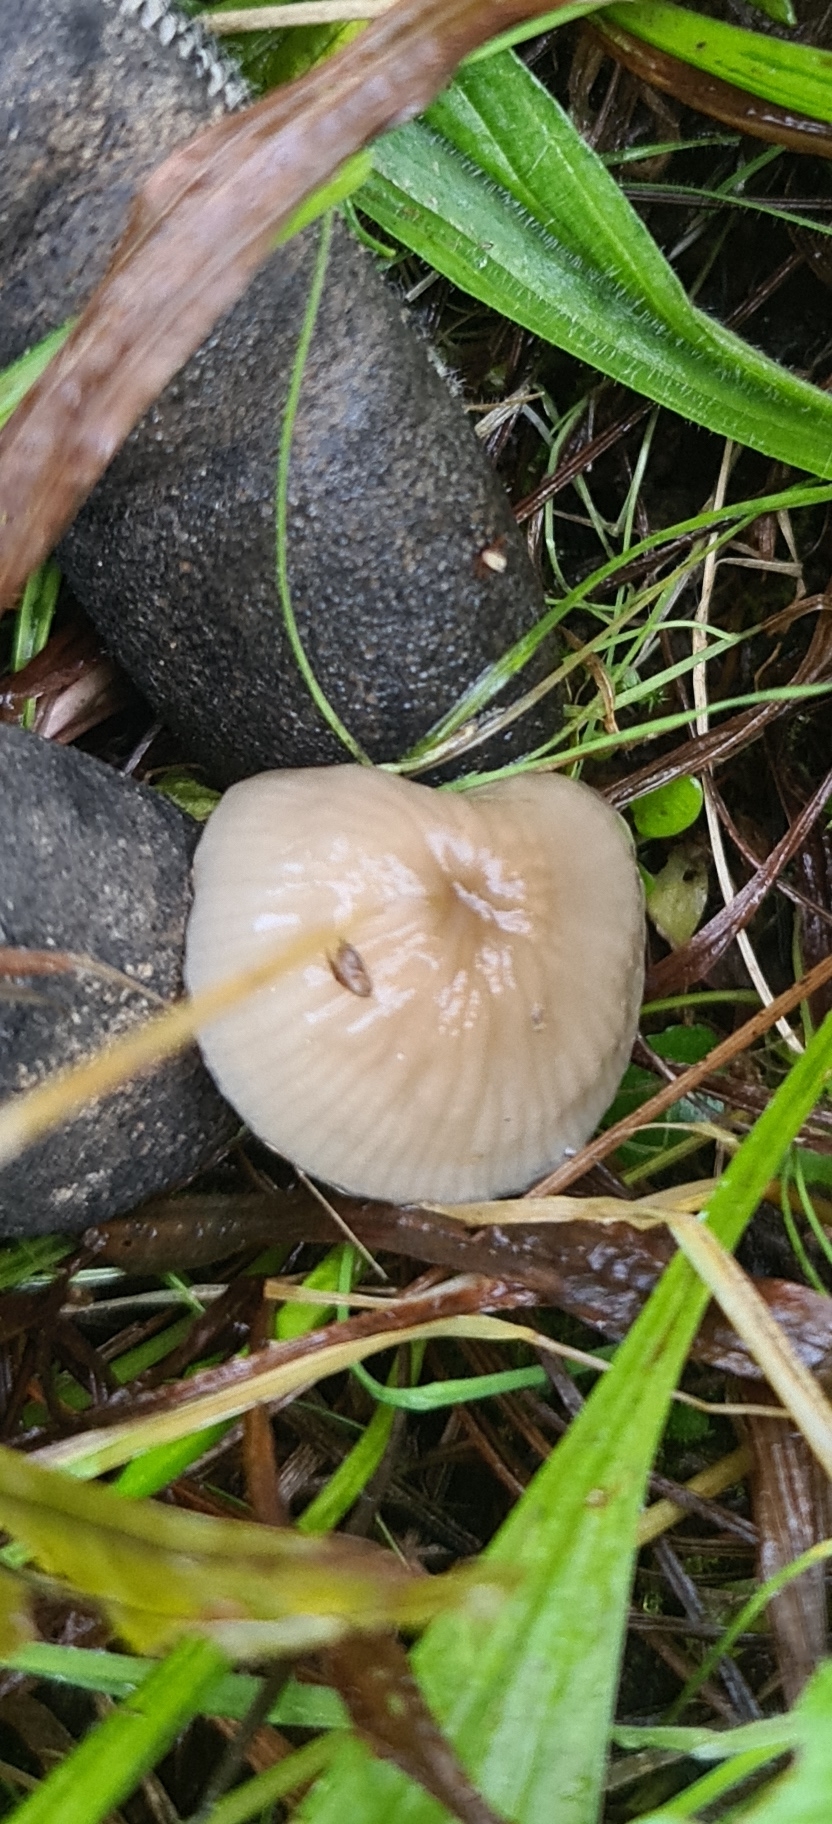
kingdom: Fungi
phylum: Basidiomycota
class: Agaricomycetes
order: Agaricales
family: Hygrophoraceae
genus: Gliophorus
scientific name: Gliophorus irrigatus
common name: Slimy waxcap
